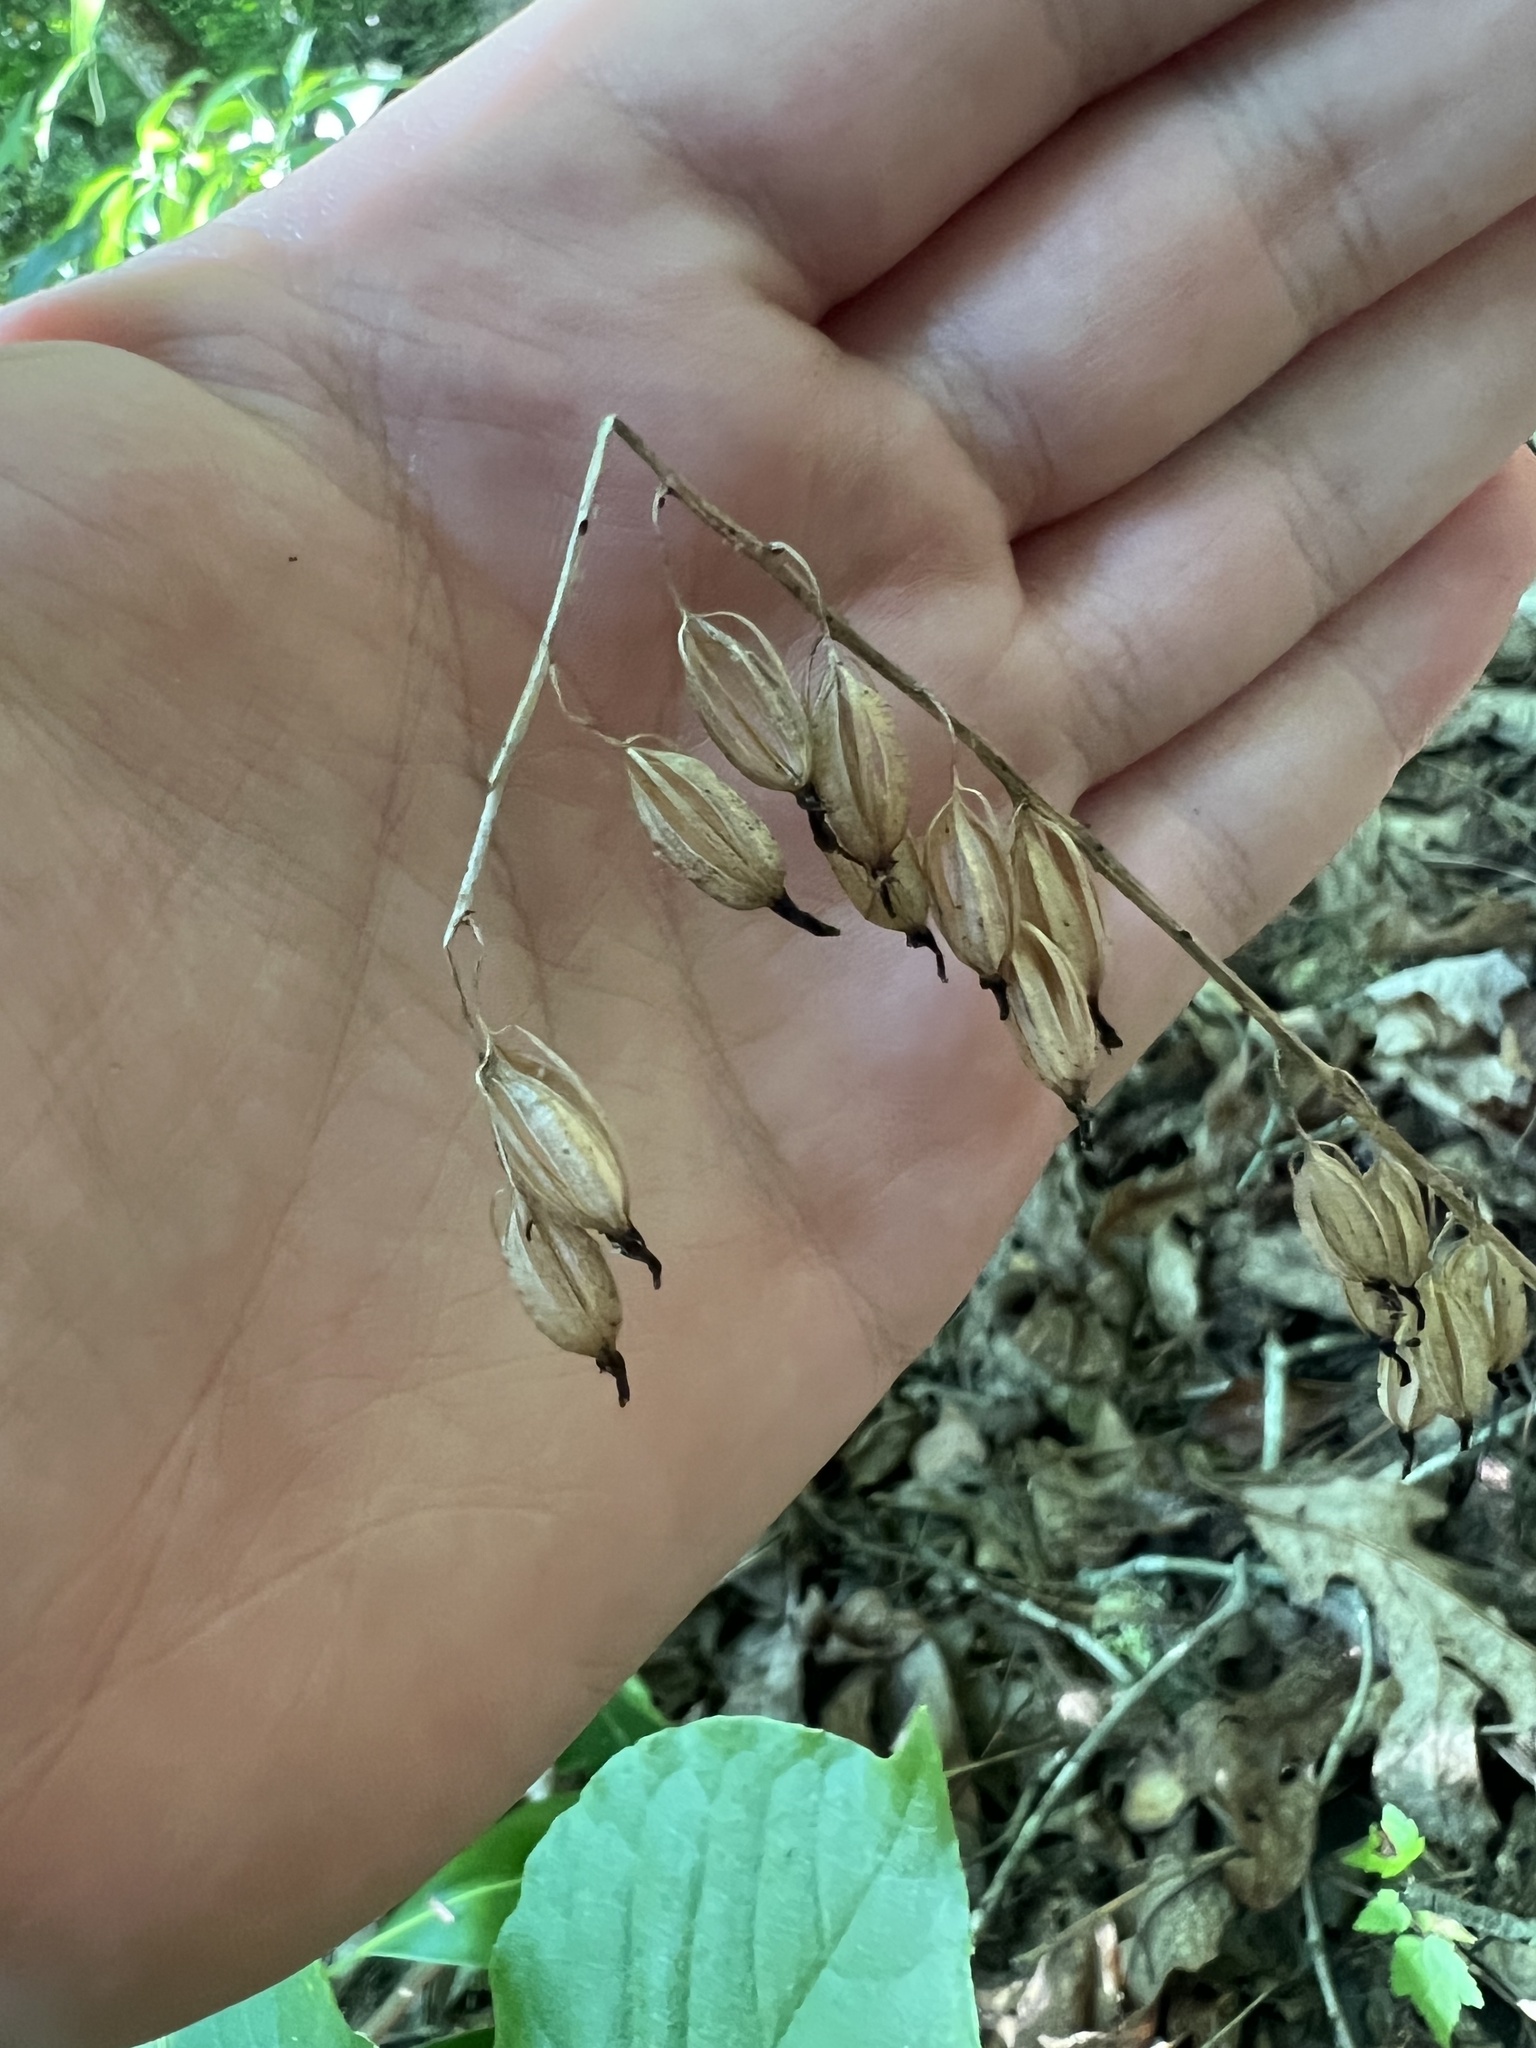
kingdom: Plantae
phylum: Tracheophyta
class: Liliopsida
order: Asparagales
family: Orchidaceae
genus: Tipularia
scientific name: Tipularia discolor
